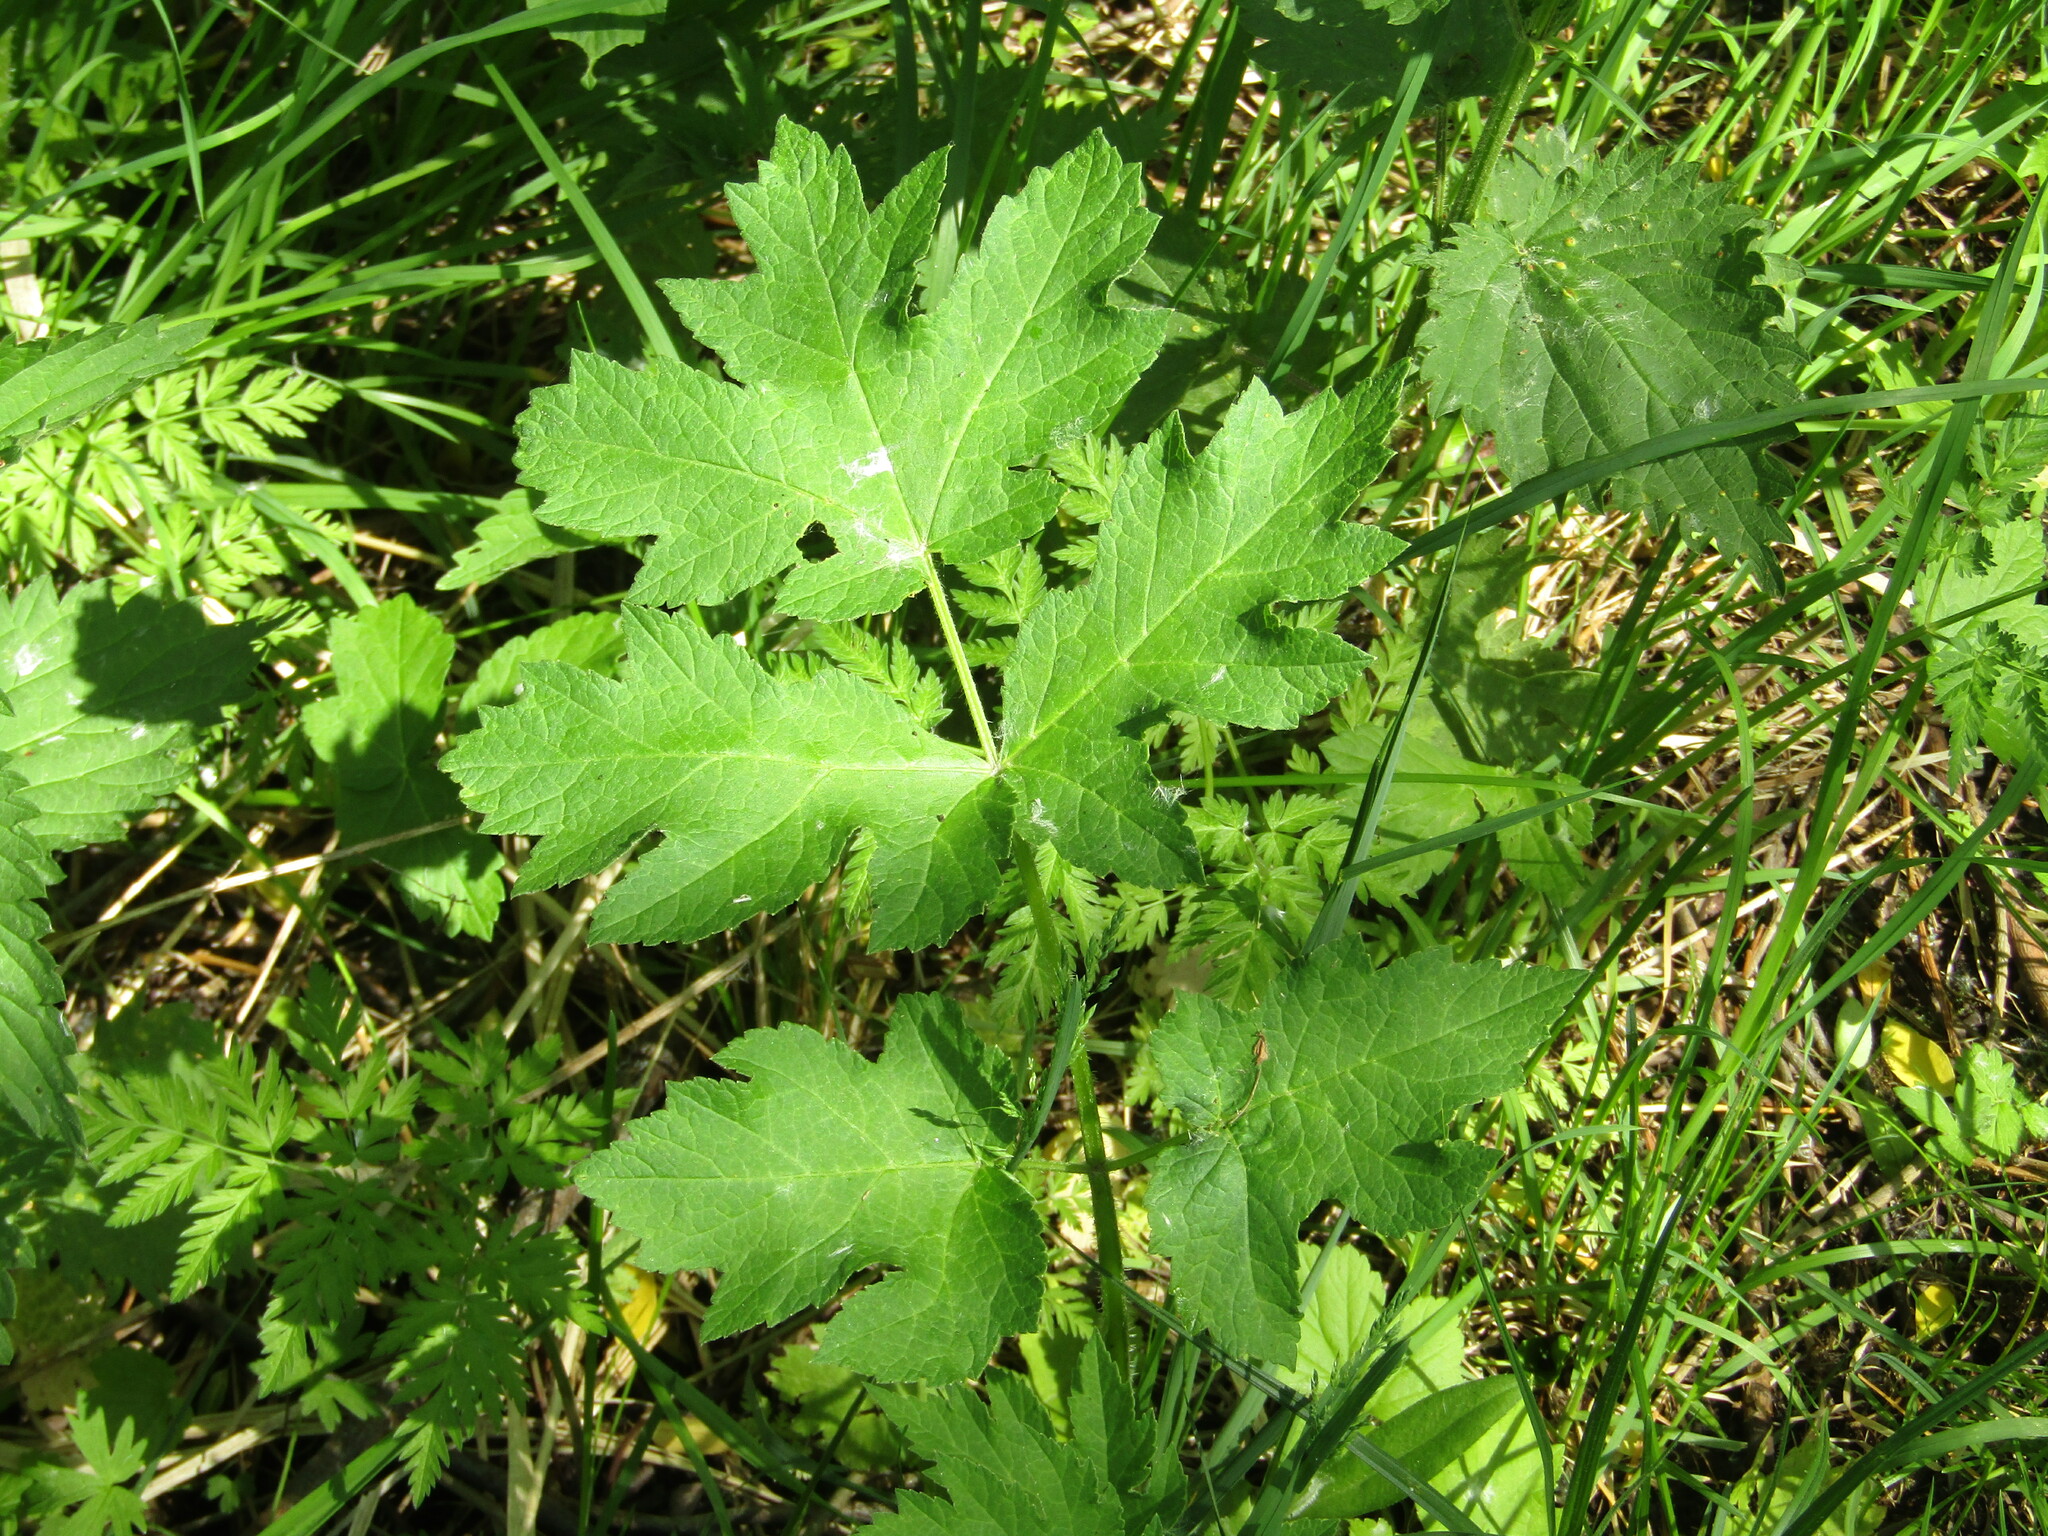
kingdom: Plantae
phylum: Tracheophyta
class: Magnoliopsida
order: Apiales
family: Apiaceae
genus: Heracleum
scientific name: Heracleum sphondylium
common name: Hogweed
